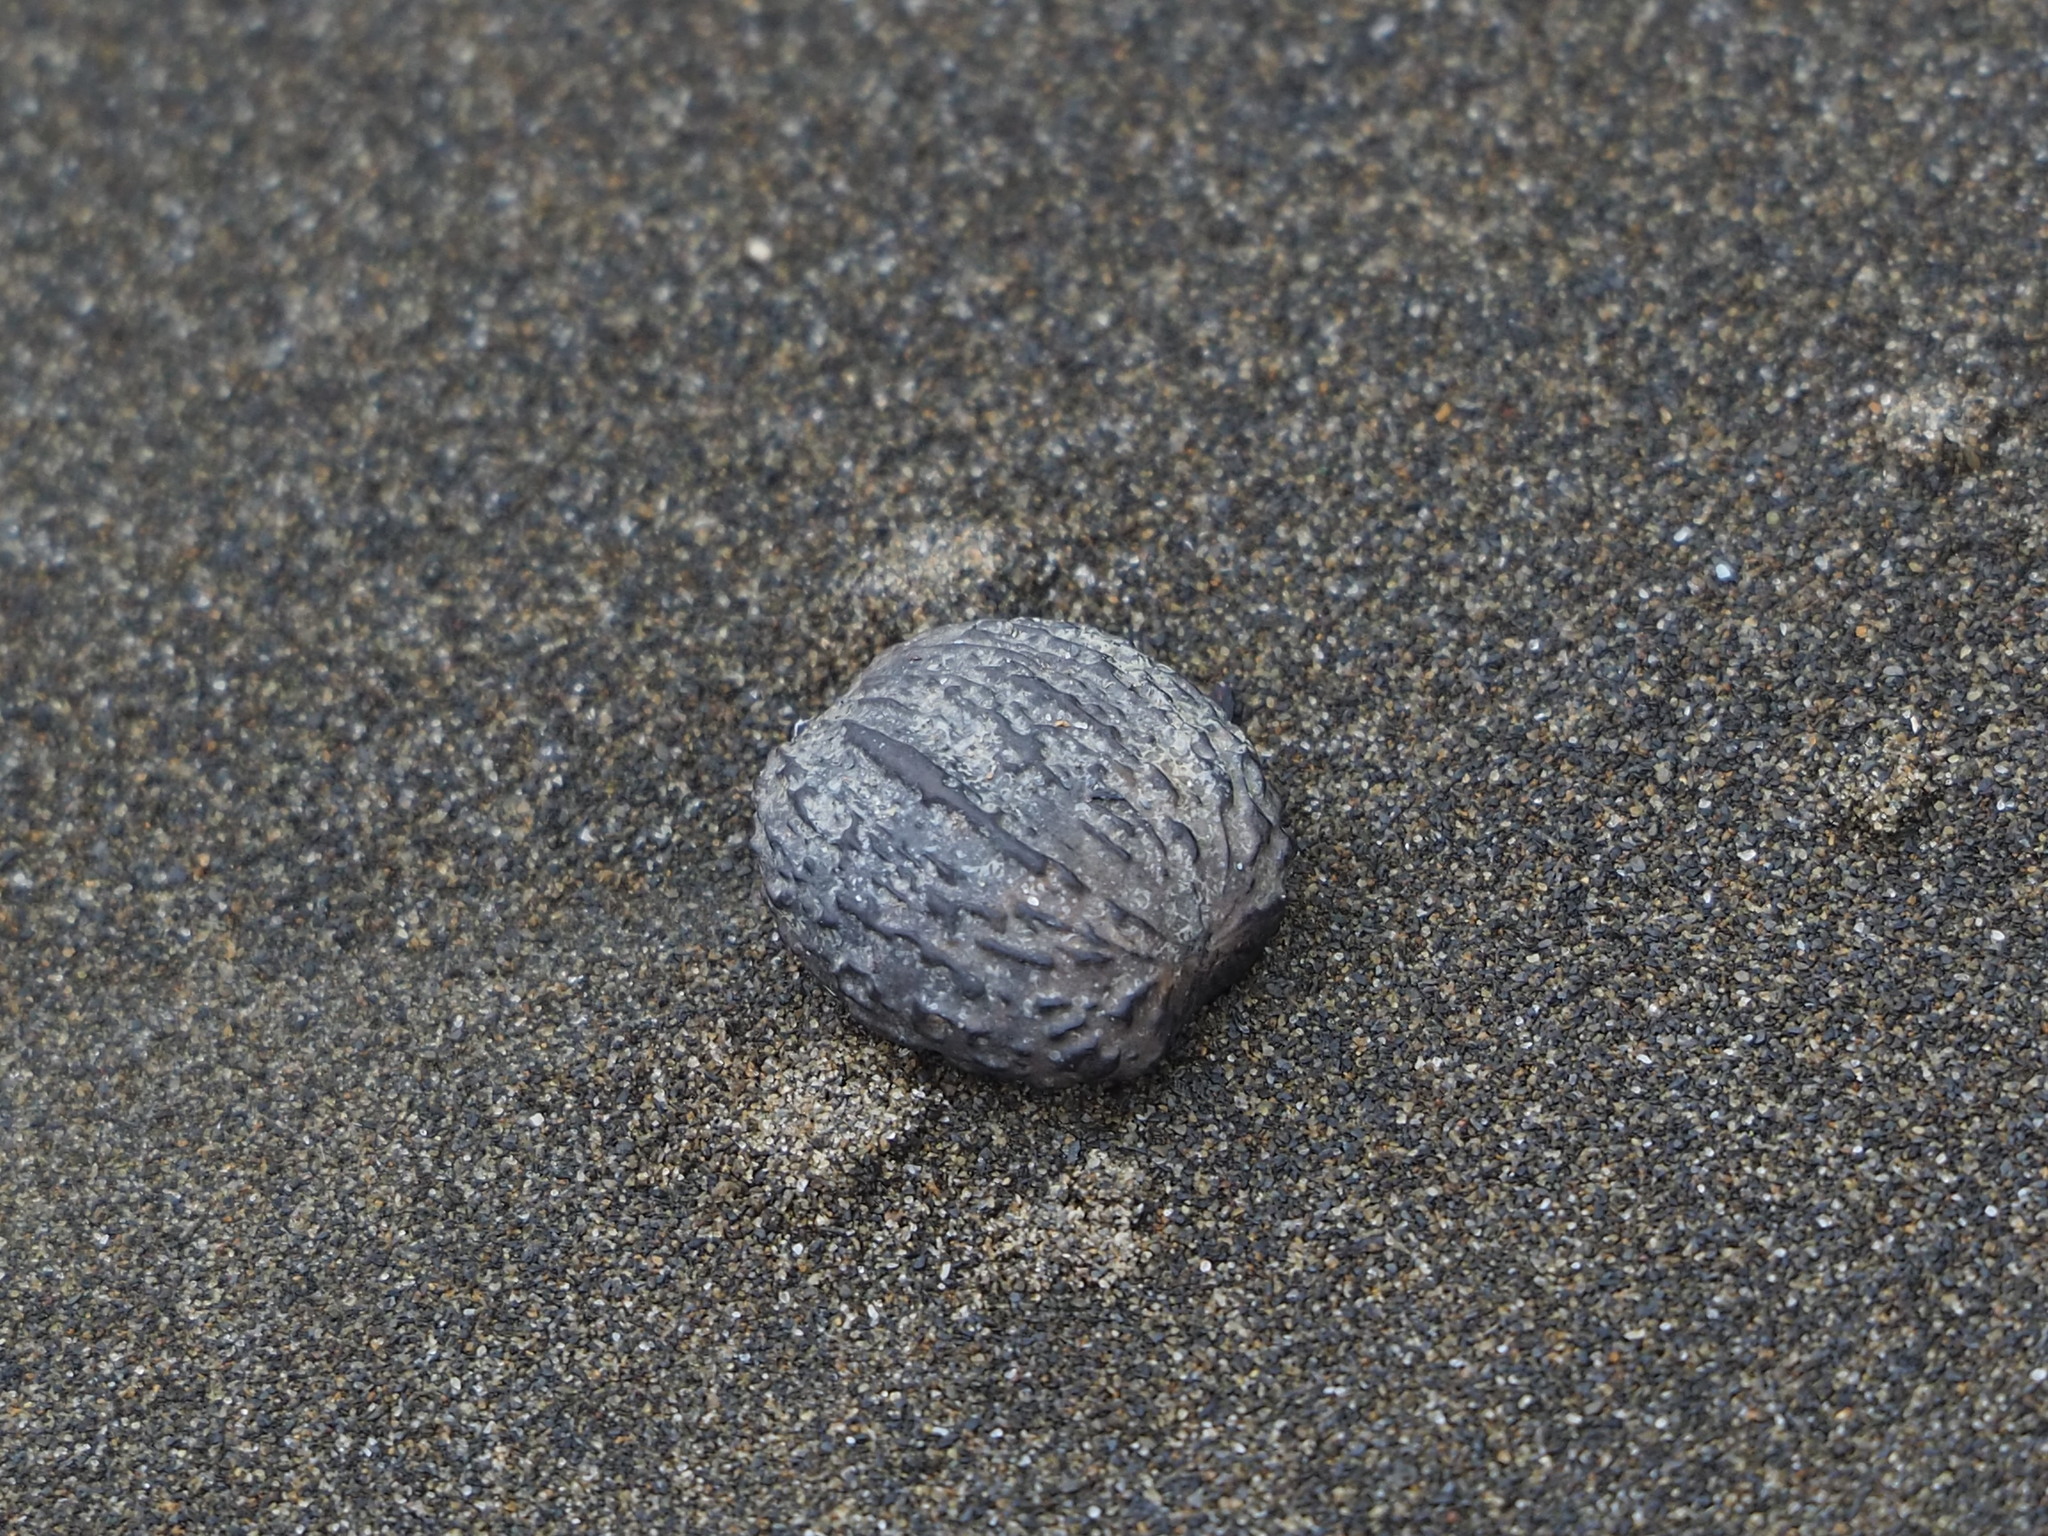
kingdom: Plantae
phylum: Tracheophyta
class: Magnoliopsida
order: Malpighiales
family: Euphorbiaceae
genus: Vernicia
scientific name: Vernicia montana
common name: Mu oil tree
